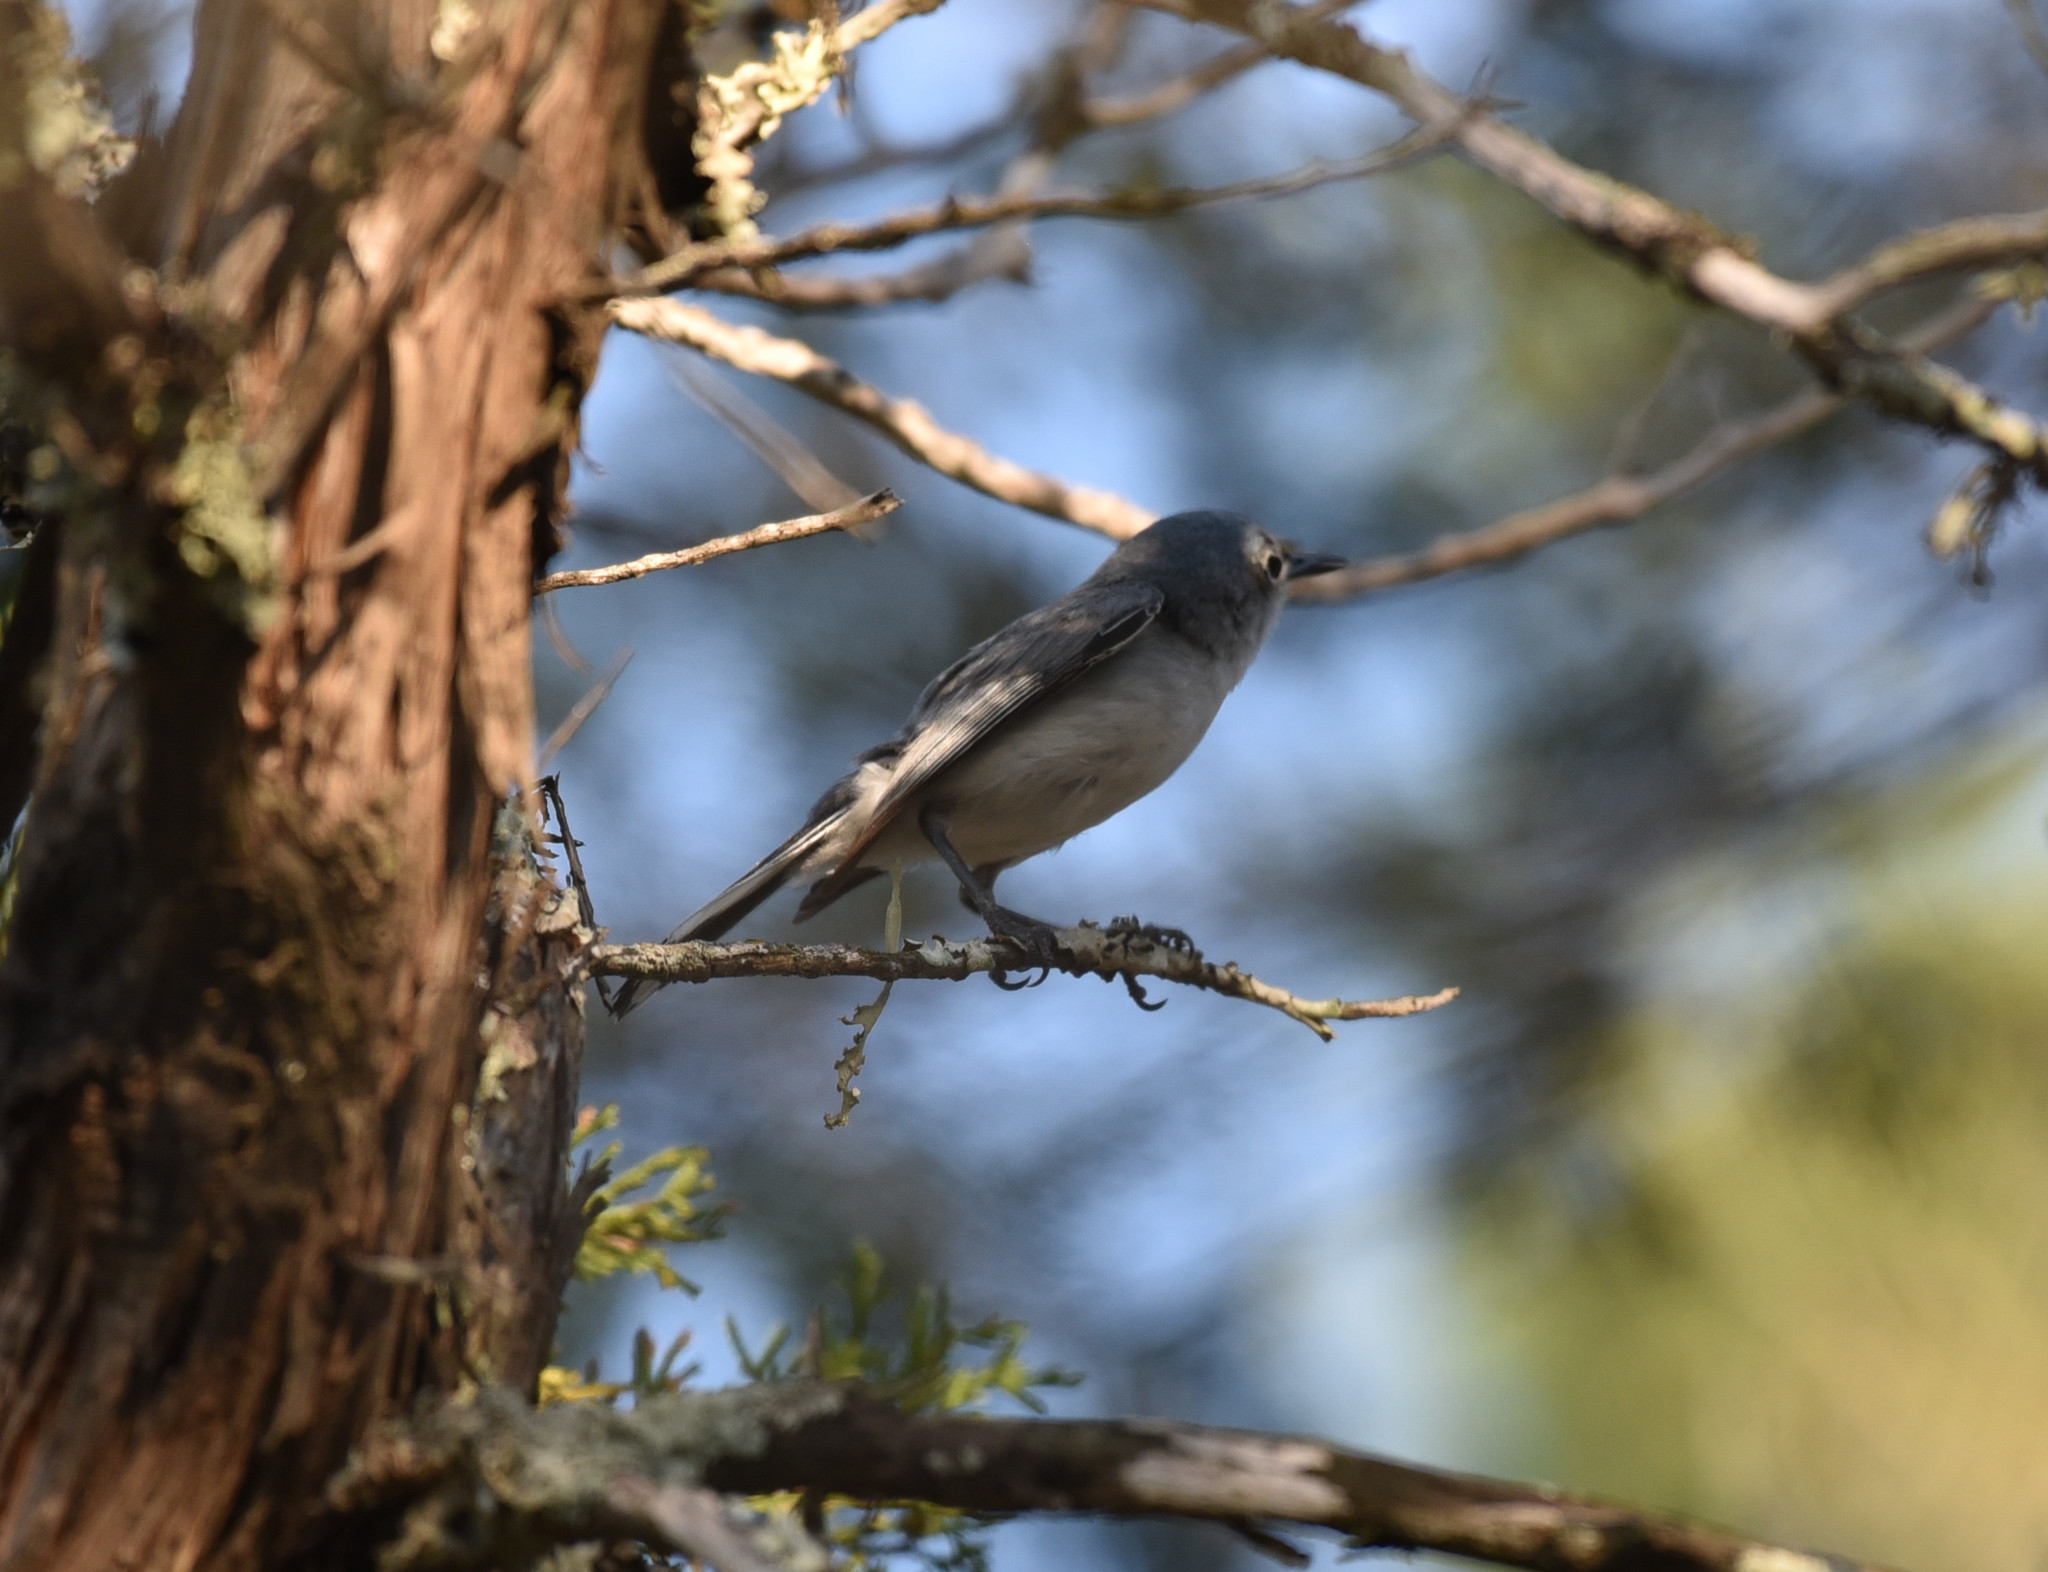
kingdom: Animalia
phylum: Chordata
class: Aves
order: Passeriformes
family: Polioptilidae
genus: Polioptila
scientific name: Polioptila caerulea
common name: Blue-gray gnatcatcher
